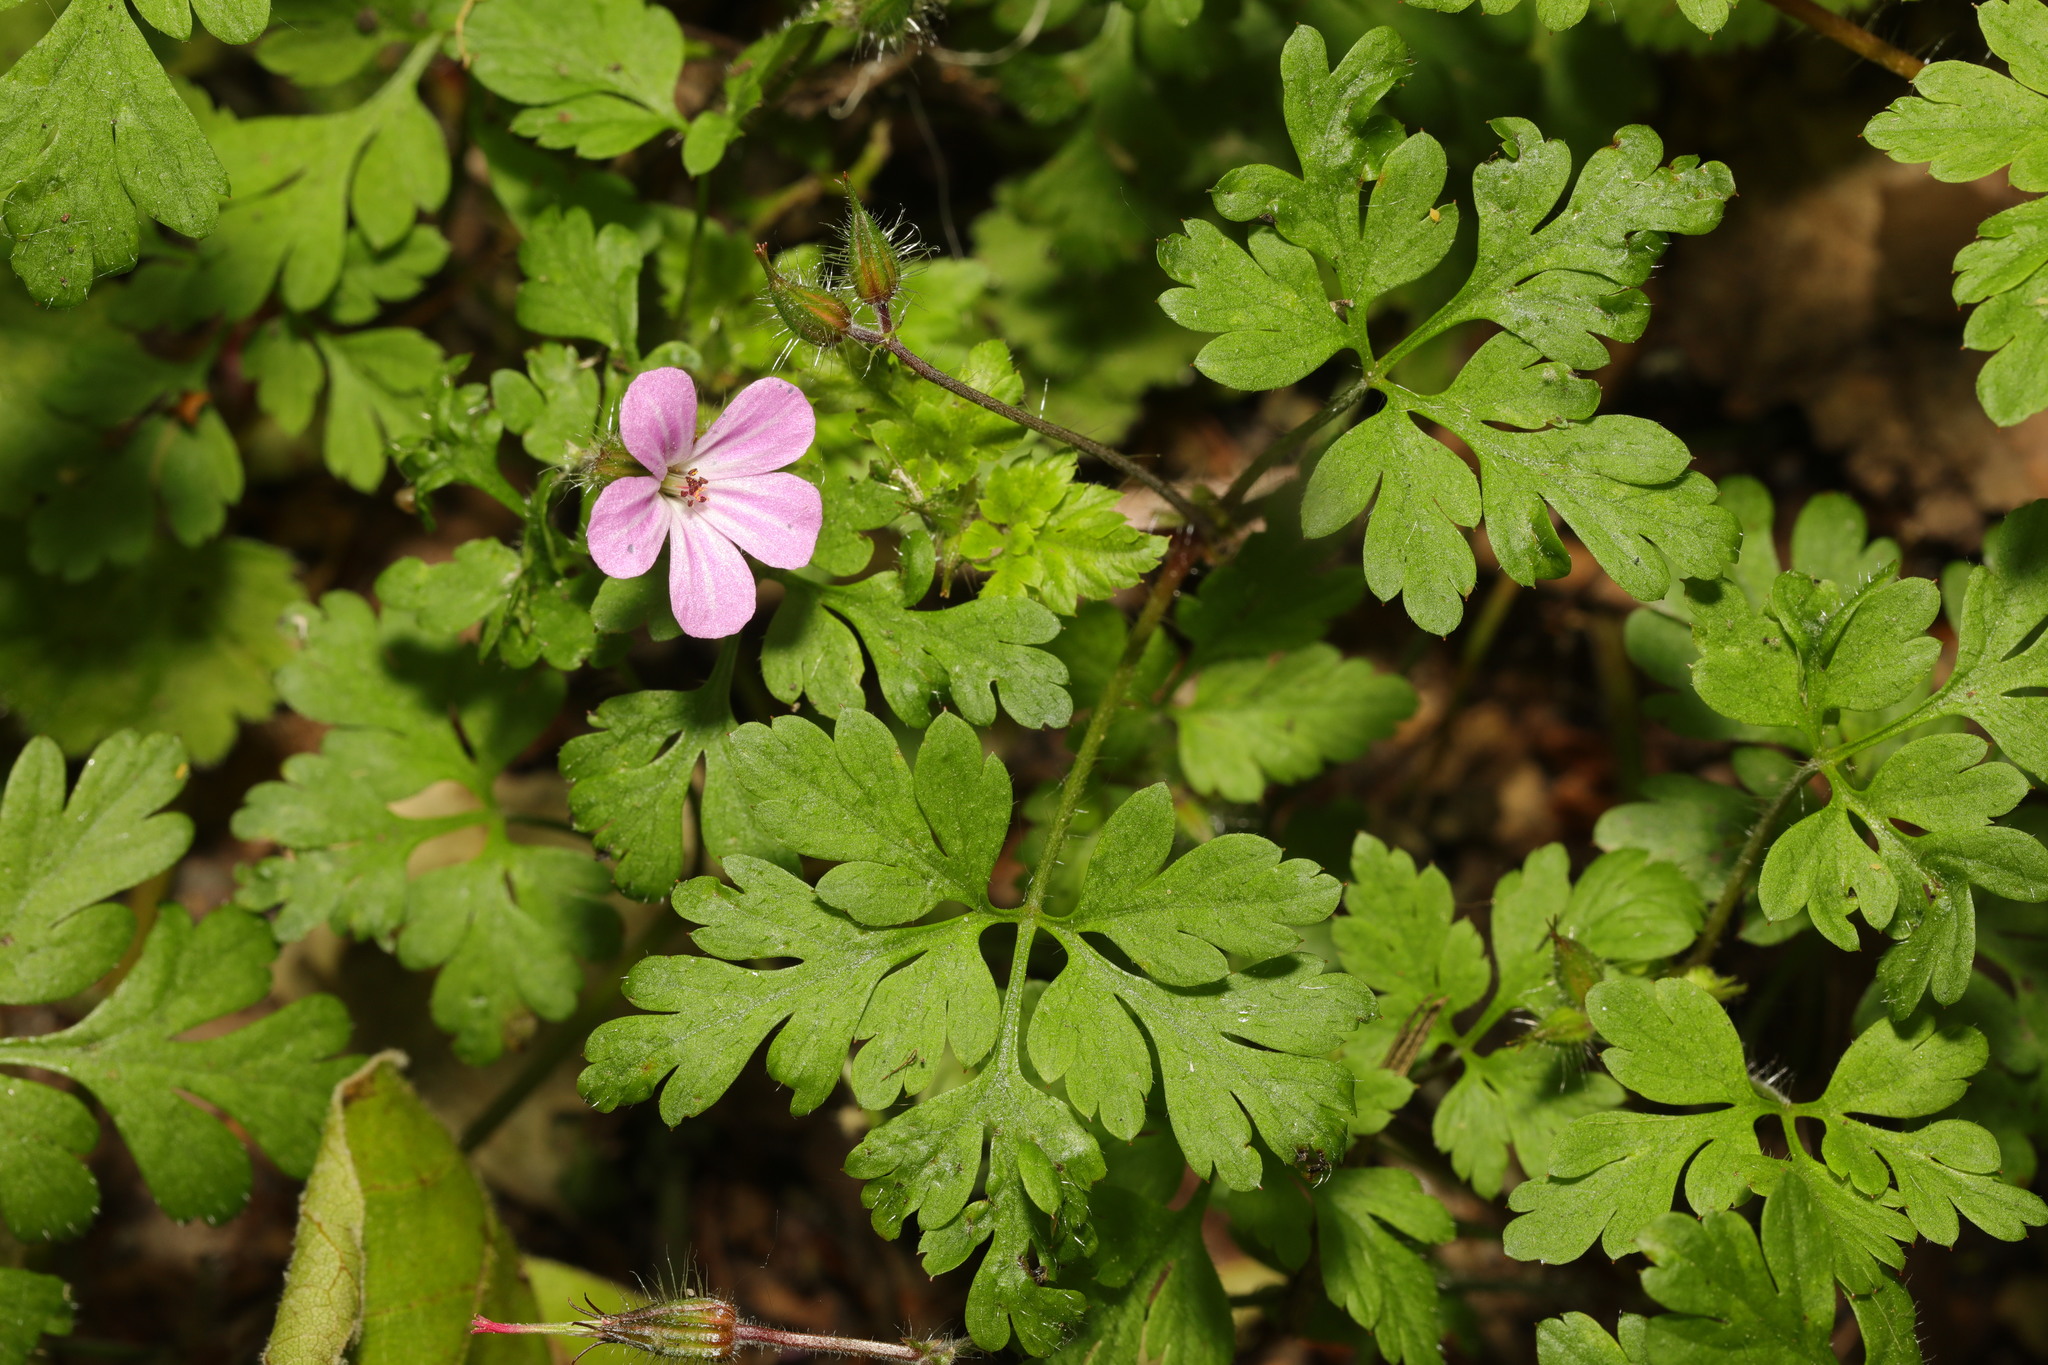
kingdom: Plantae
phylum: Tracheophyta
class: Magnoliopsida
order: Geraniales
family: Geraniaceae
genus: Geranium
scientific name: Geranium robertianum
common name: Herb-robert
